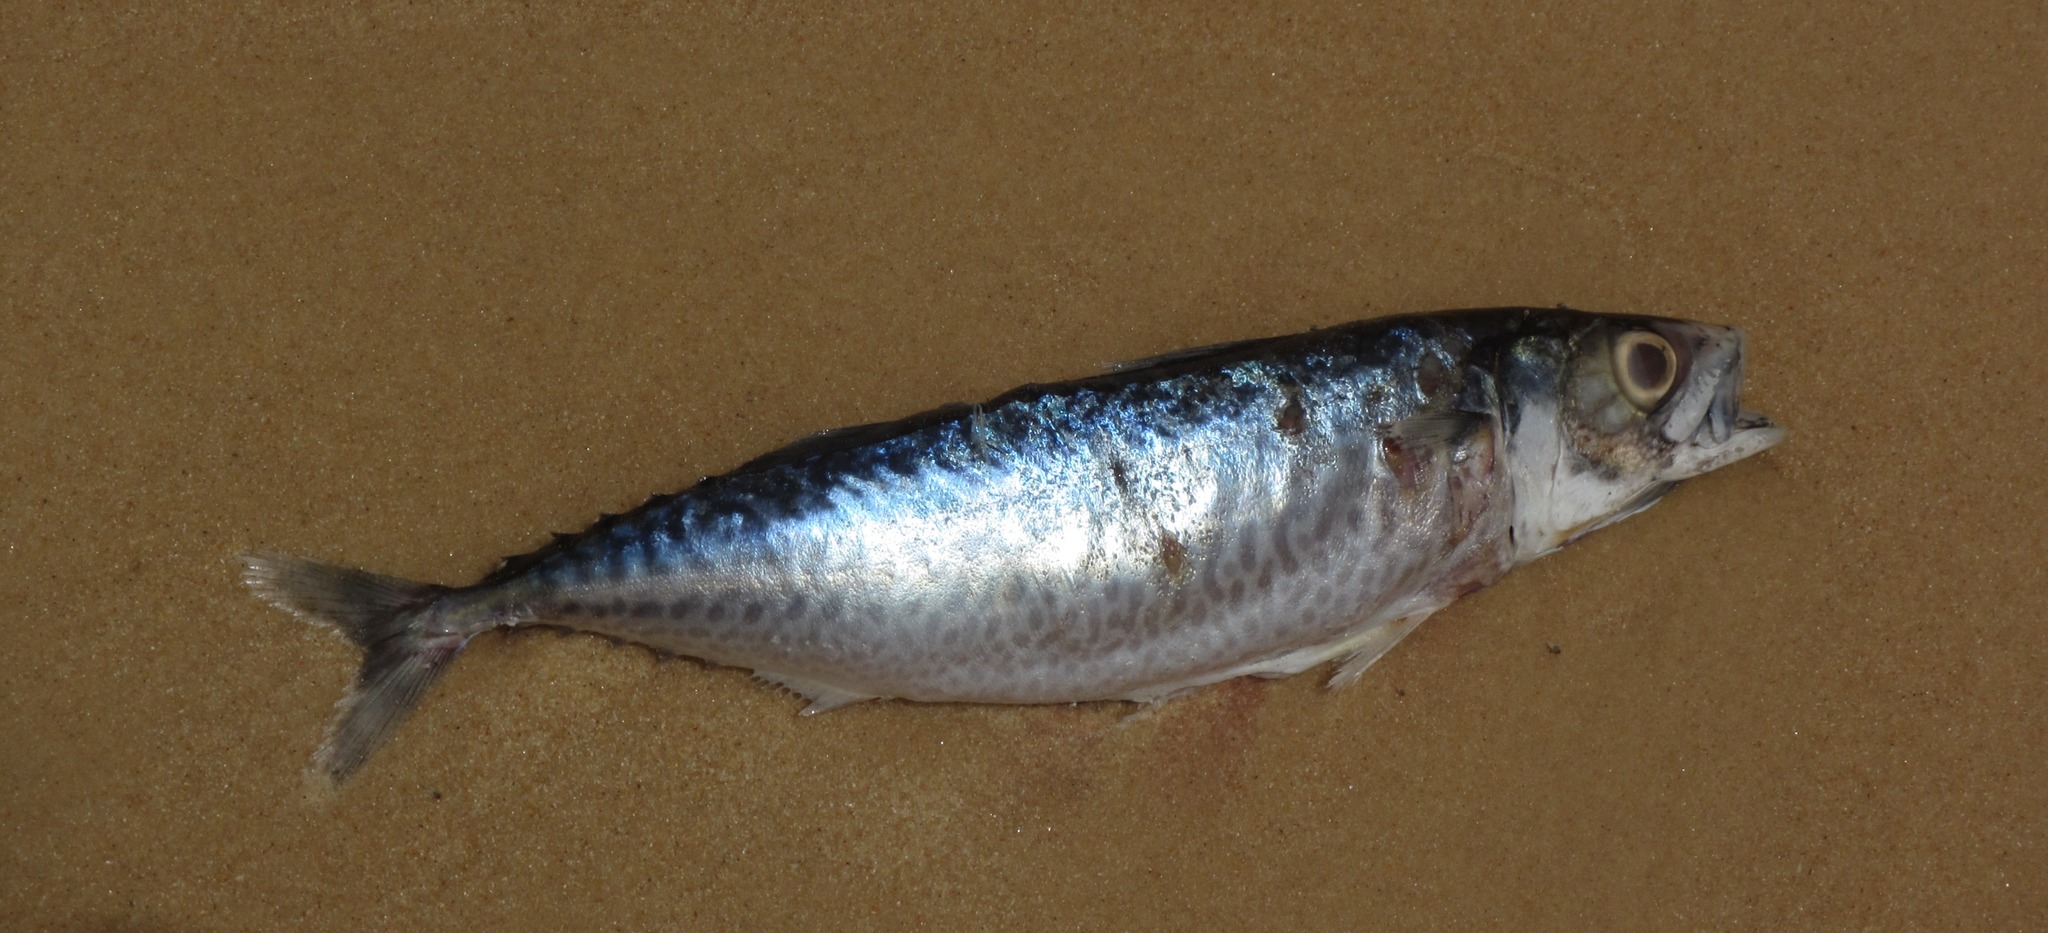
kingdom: Animalia
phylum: Chordata
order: Perciformes
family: Scombridae
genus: Scomber
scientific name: Scomber colias
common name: Atlantic chub mackerel
